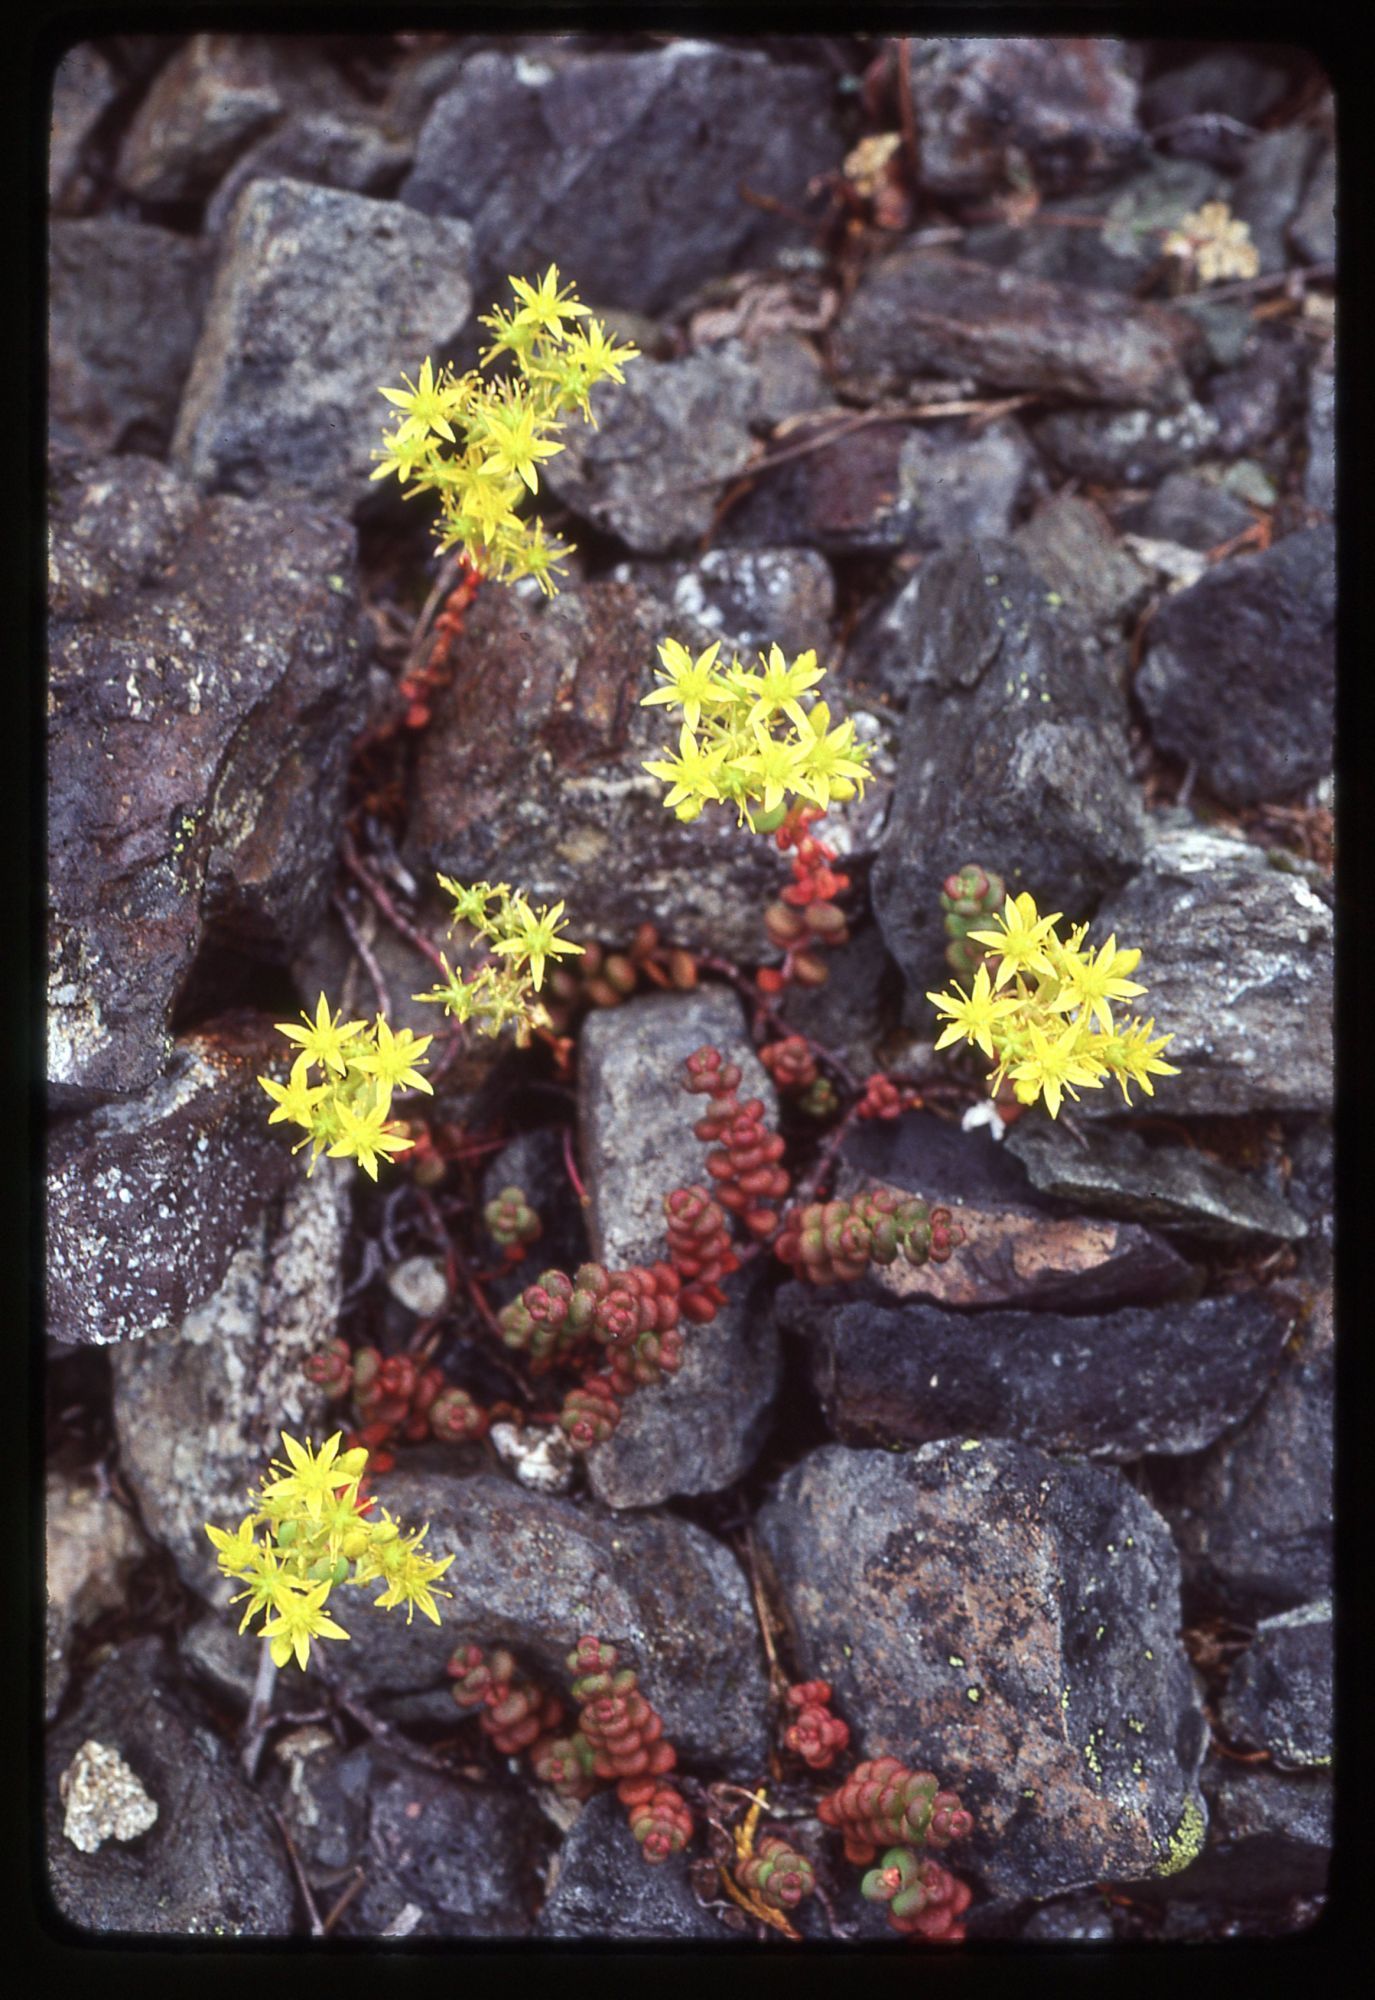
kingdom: Plantae
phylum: Tracheophyta
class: Magnoliopsida
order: Saxifragales
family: Crassulaceae
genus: Sedum
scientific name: Sedum divergens
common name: Cascade stonecrop
